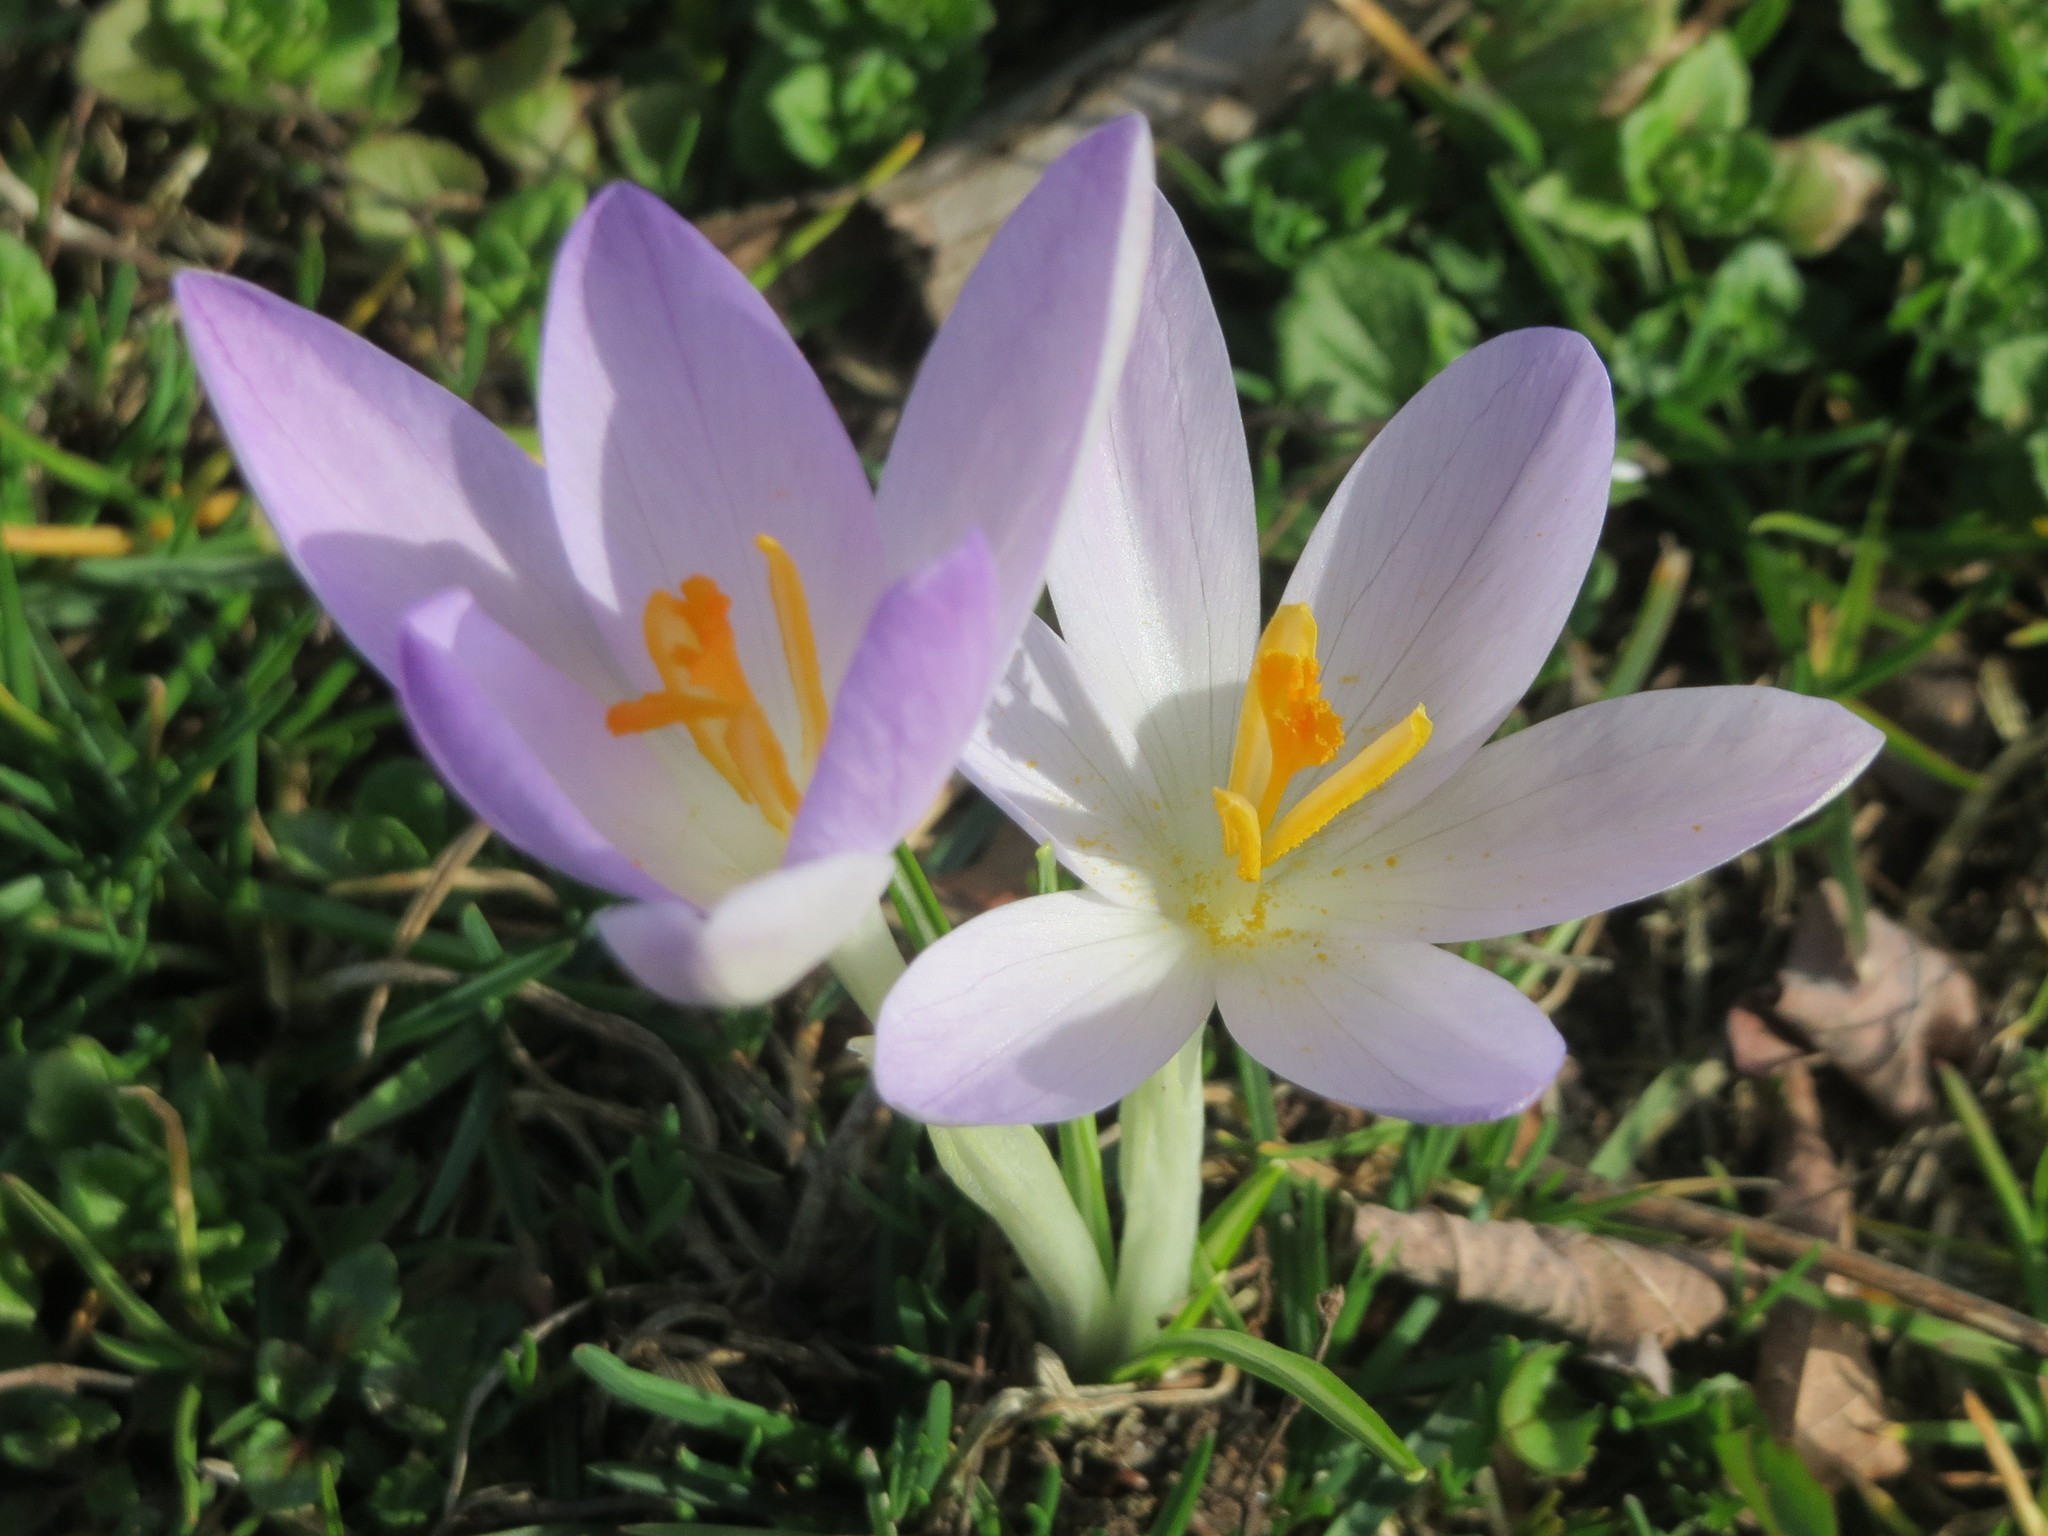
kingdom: Plantae
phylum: Tracheophyta
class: Liliopsida
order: Asparagales
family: Iridaceae
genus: Crocus
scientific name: Crocus tommasinianus
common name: Early crocus
